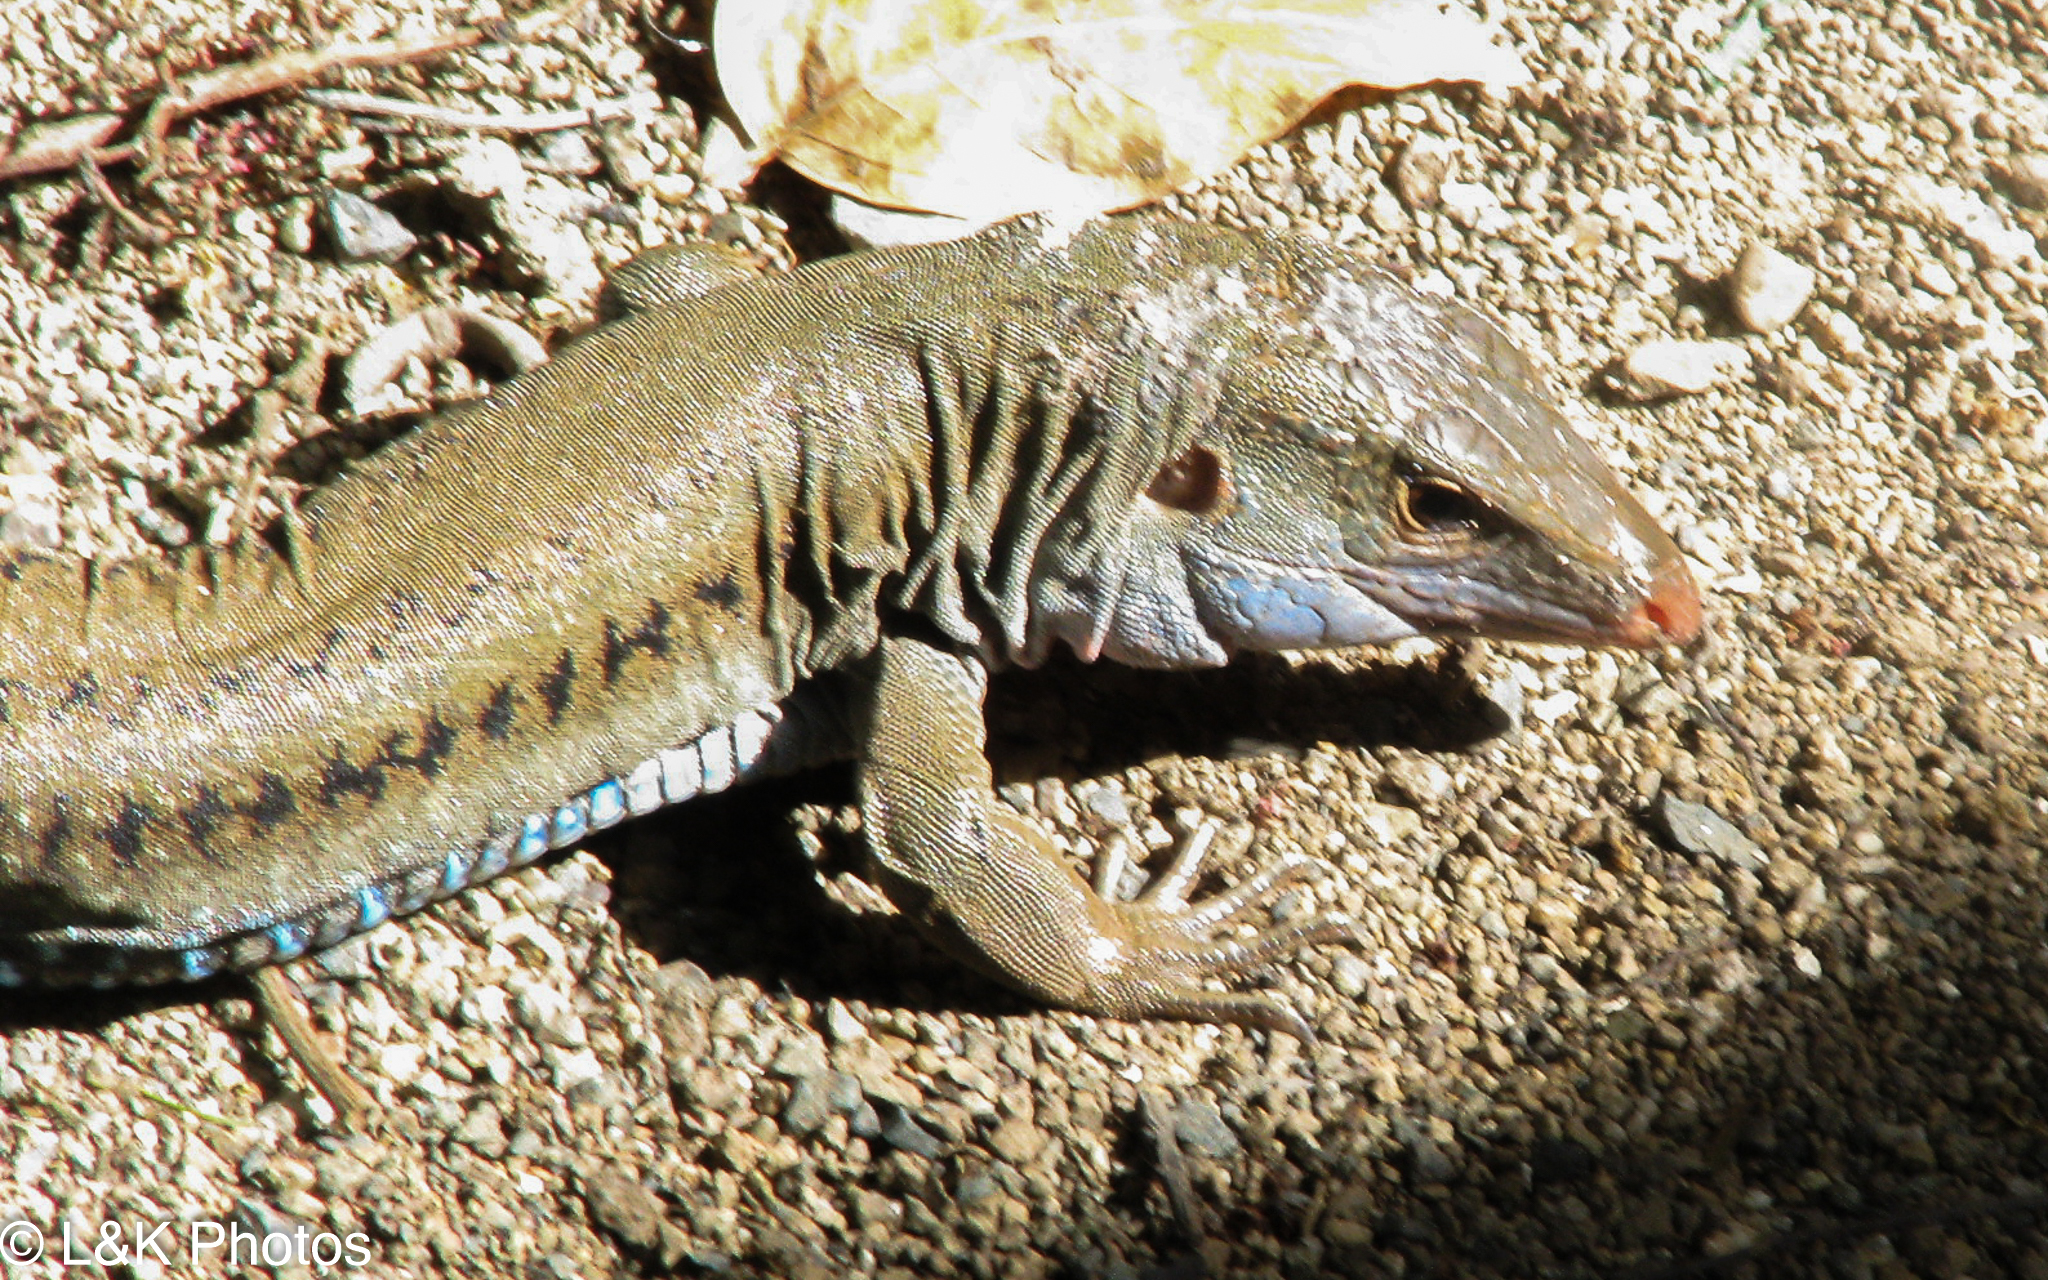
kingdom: Animalia
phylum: Chordata
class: Squamata
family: Teiidae
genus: Pholidoscelis
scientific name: Pholidoscelis exsul
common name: Common puerto rican ameiva
